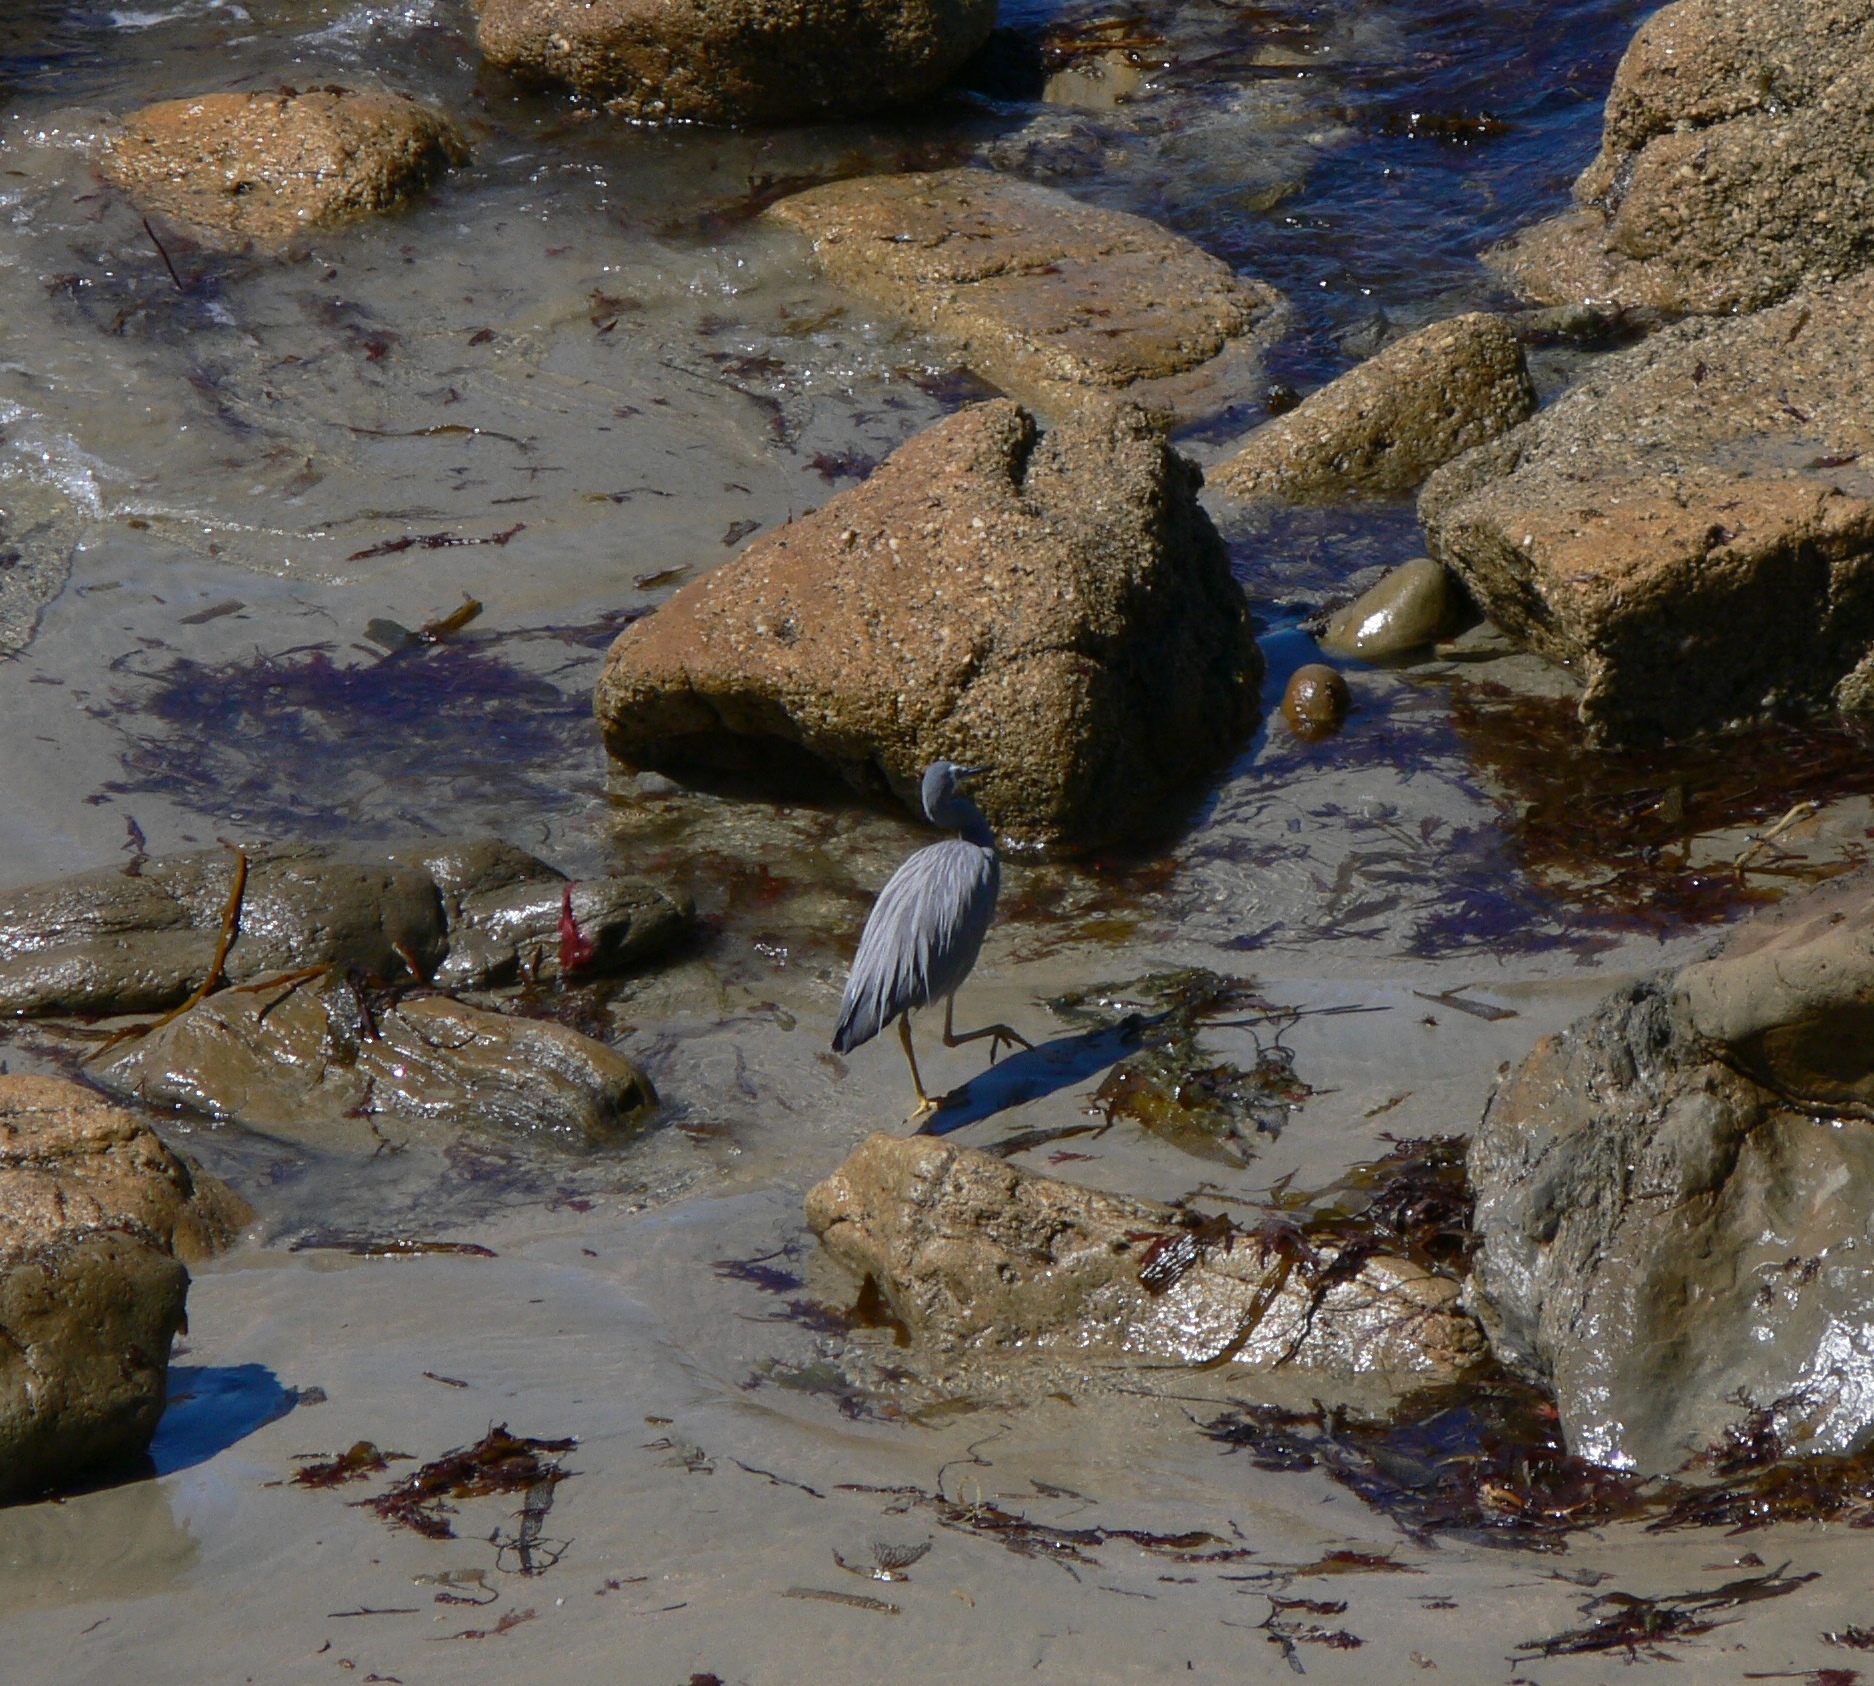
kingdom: Animalia
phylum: Chordata
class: Aves
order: Pelecaniformes
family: Ardeidae
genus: Egretta
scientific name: Egretta novaehollandiae
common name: White-faced heron
